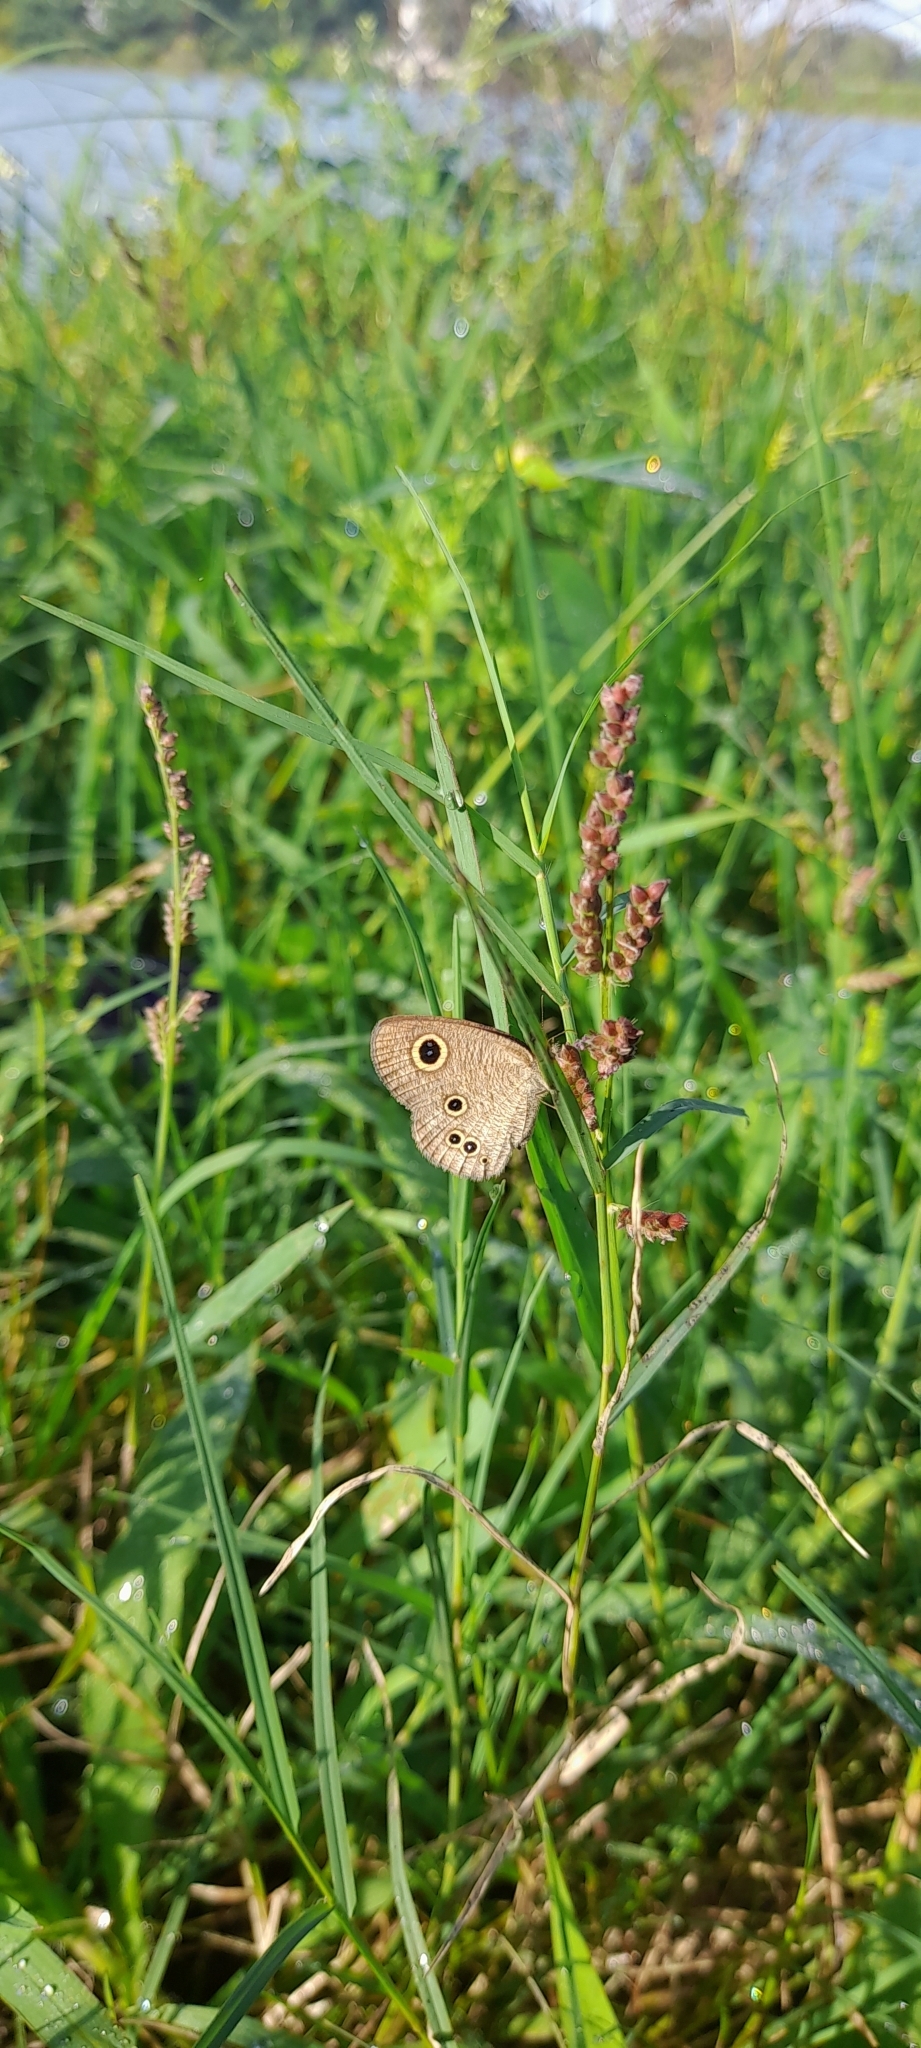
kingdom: Animalia
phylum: Arthropoda
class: Insecta
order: Lepidoptera
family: Nymphalidae
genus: Ypthima
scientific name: Ypthima philomela
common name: Baby fivering
